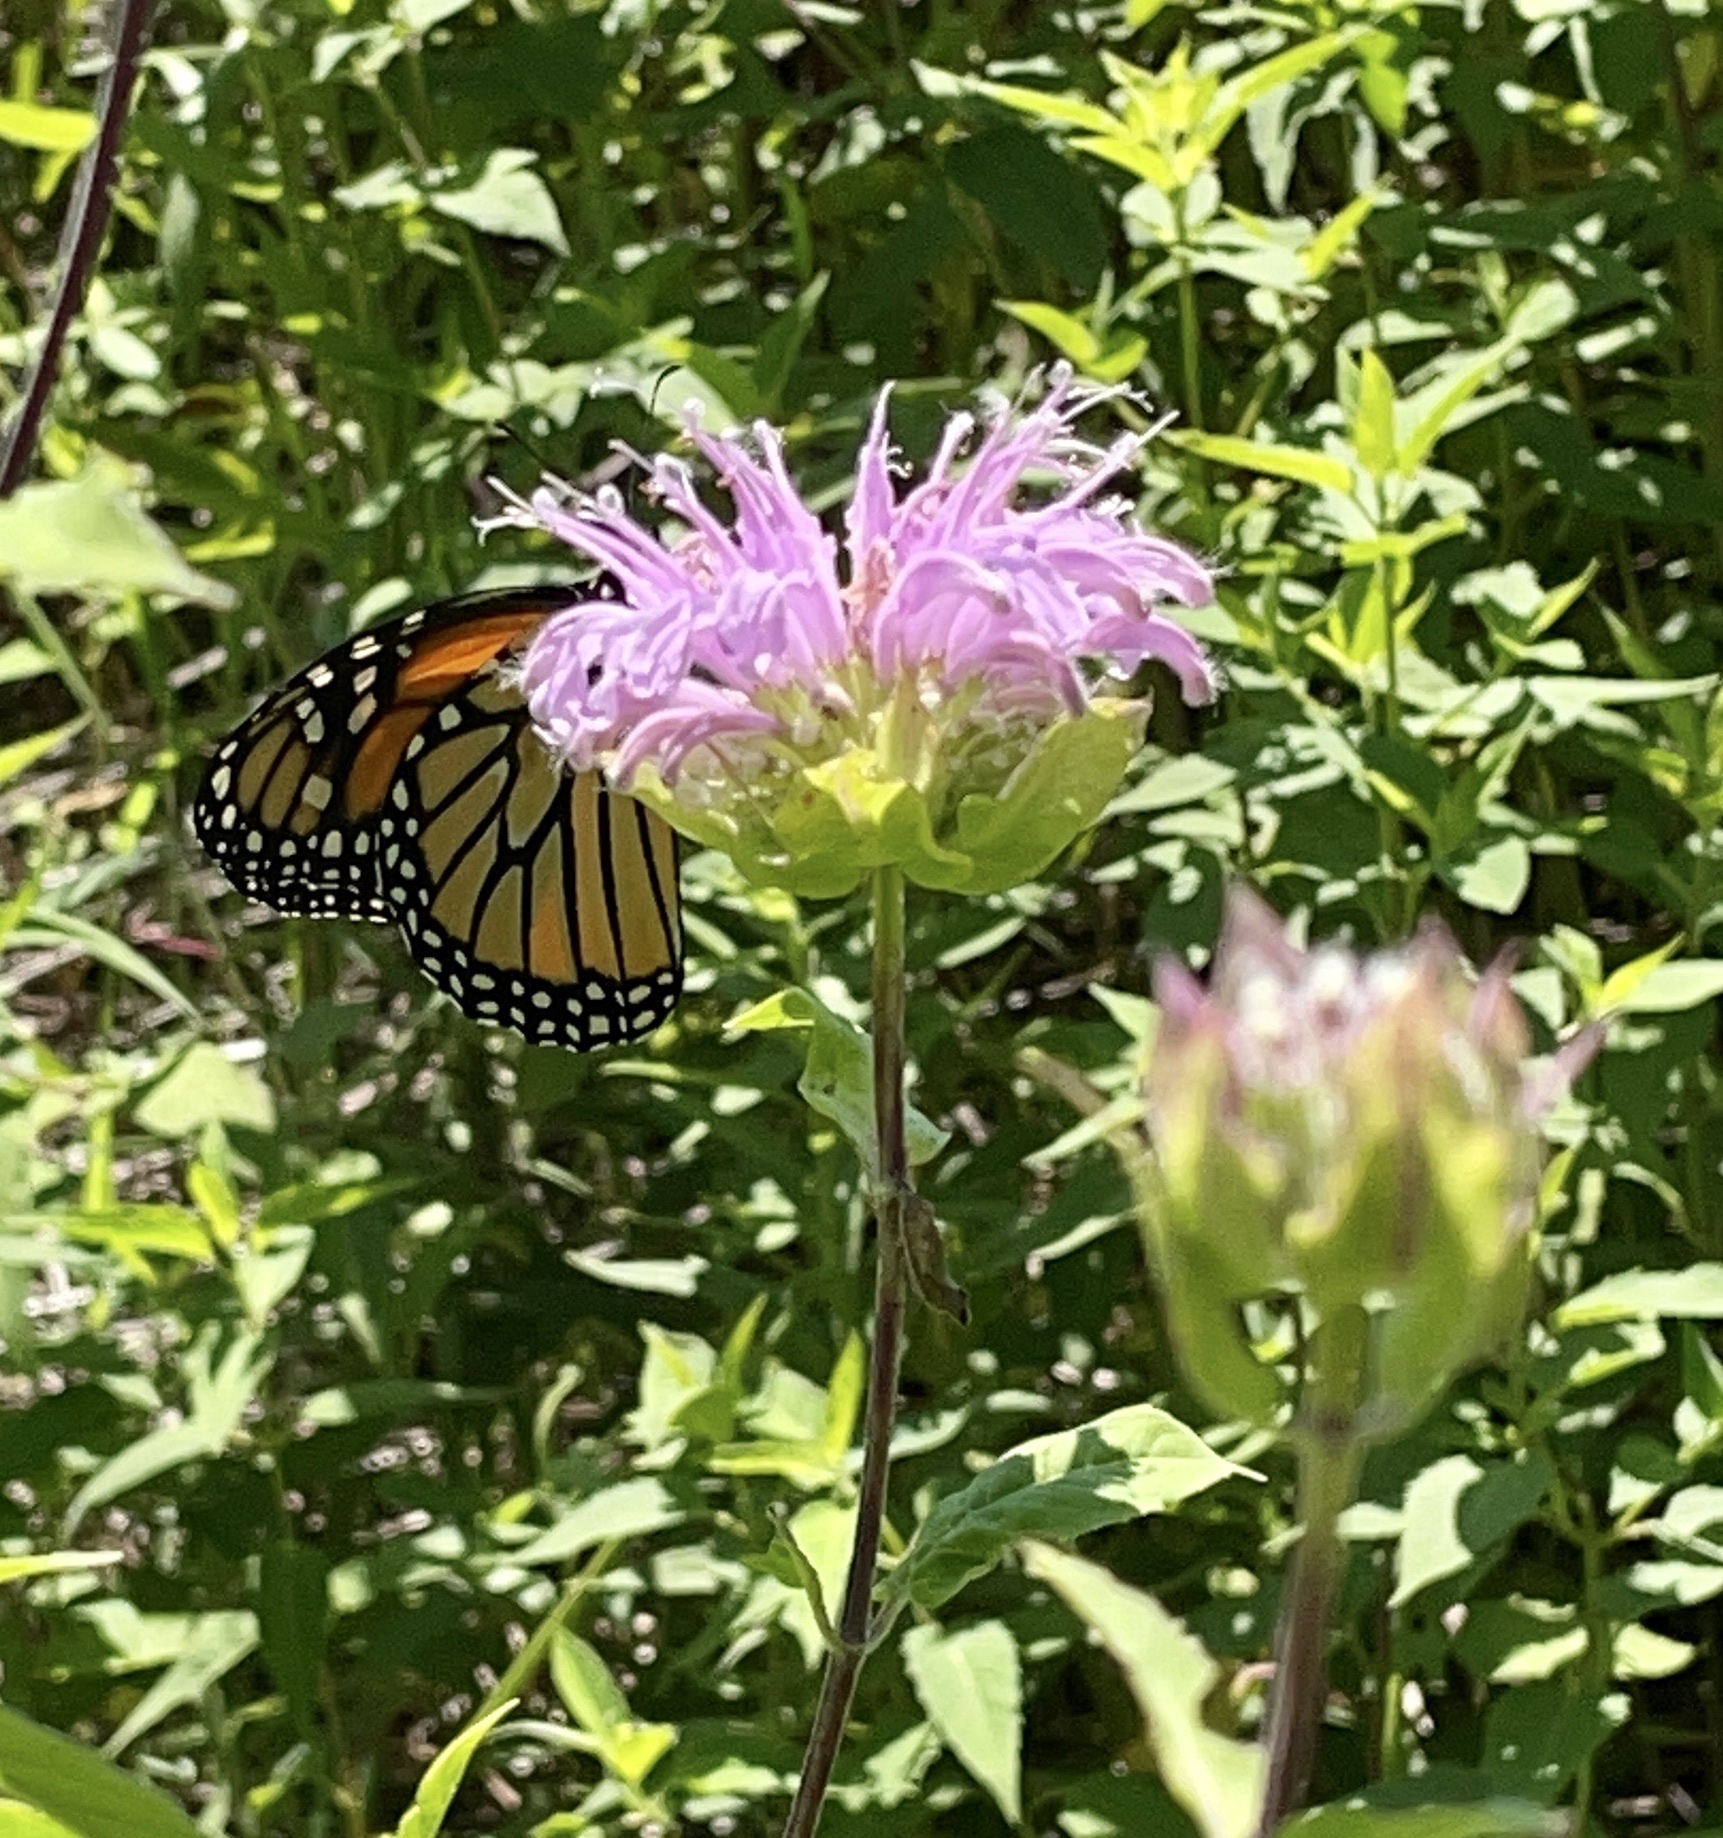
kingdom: Animalia
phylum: Arthropoda
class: Insecta
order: Lepidoptera
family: Nymphalidae
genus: Danaus
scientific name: Danaus plexippus
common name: Monarch
